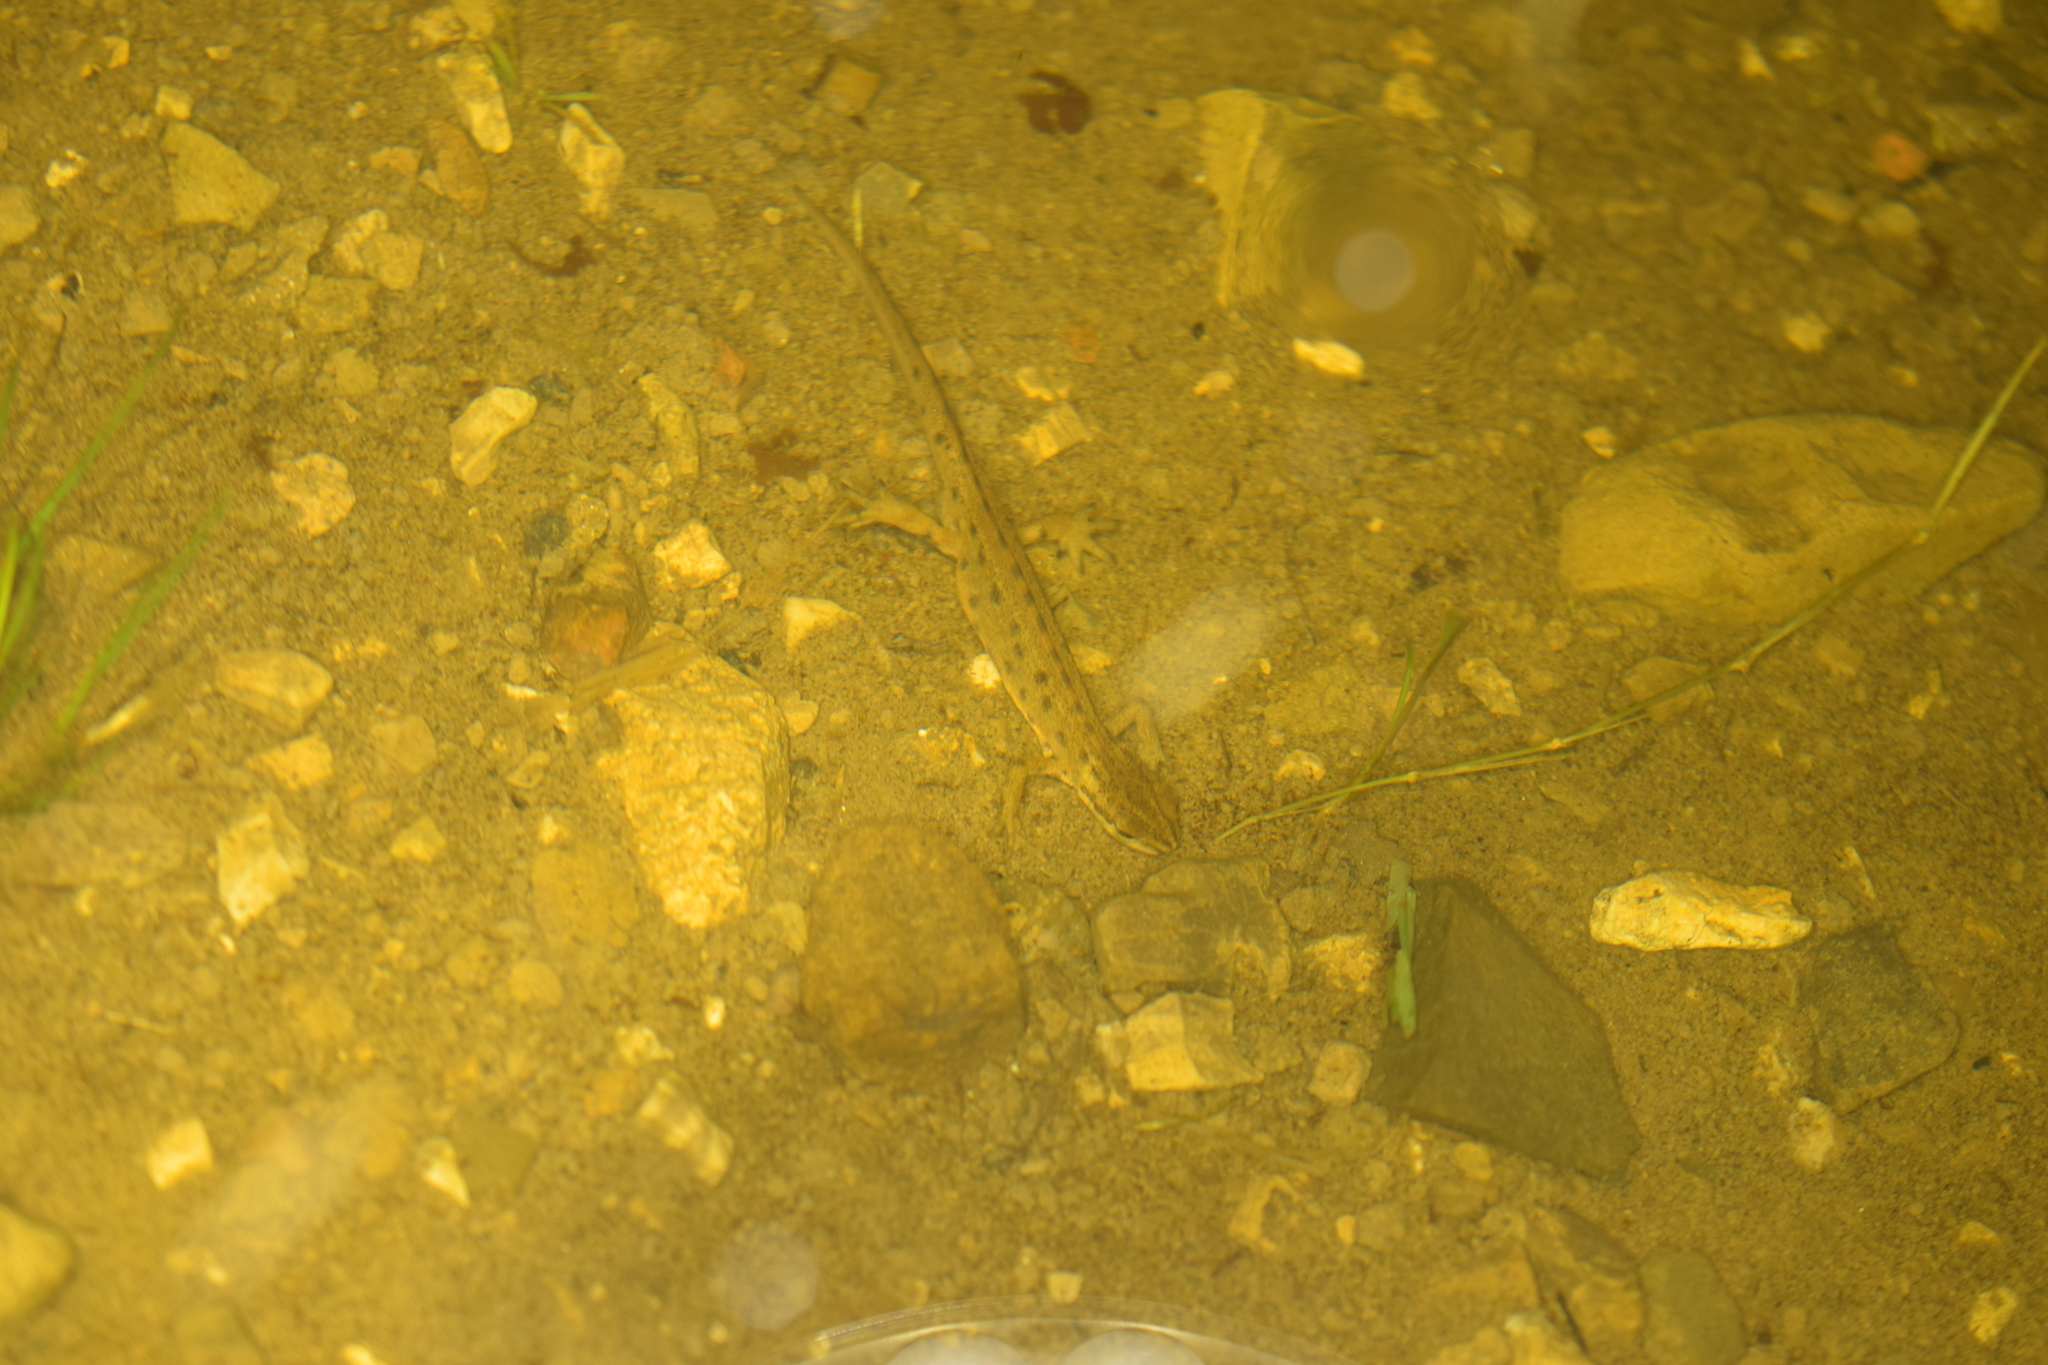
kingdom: Animalia
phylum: Chordata
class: Amphibia
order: Caudata
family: Salamandridae
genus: Lissotriton
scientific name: Lissotriton vulgaris
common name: Smooth newt
